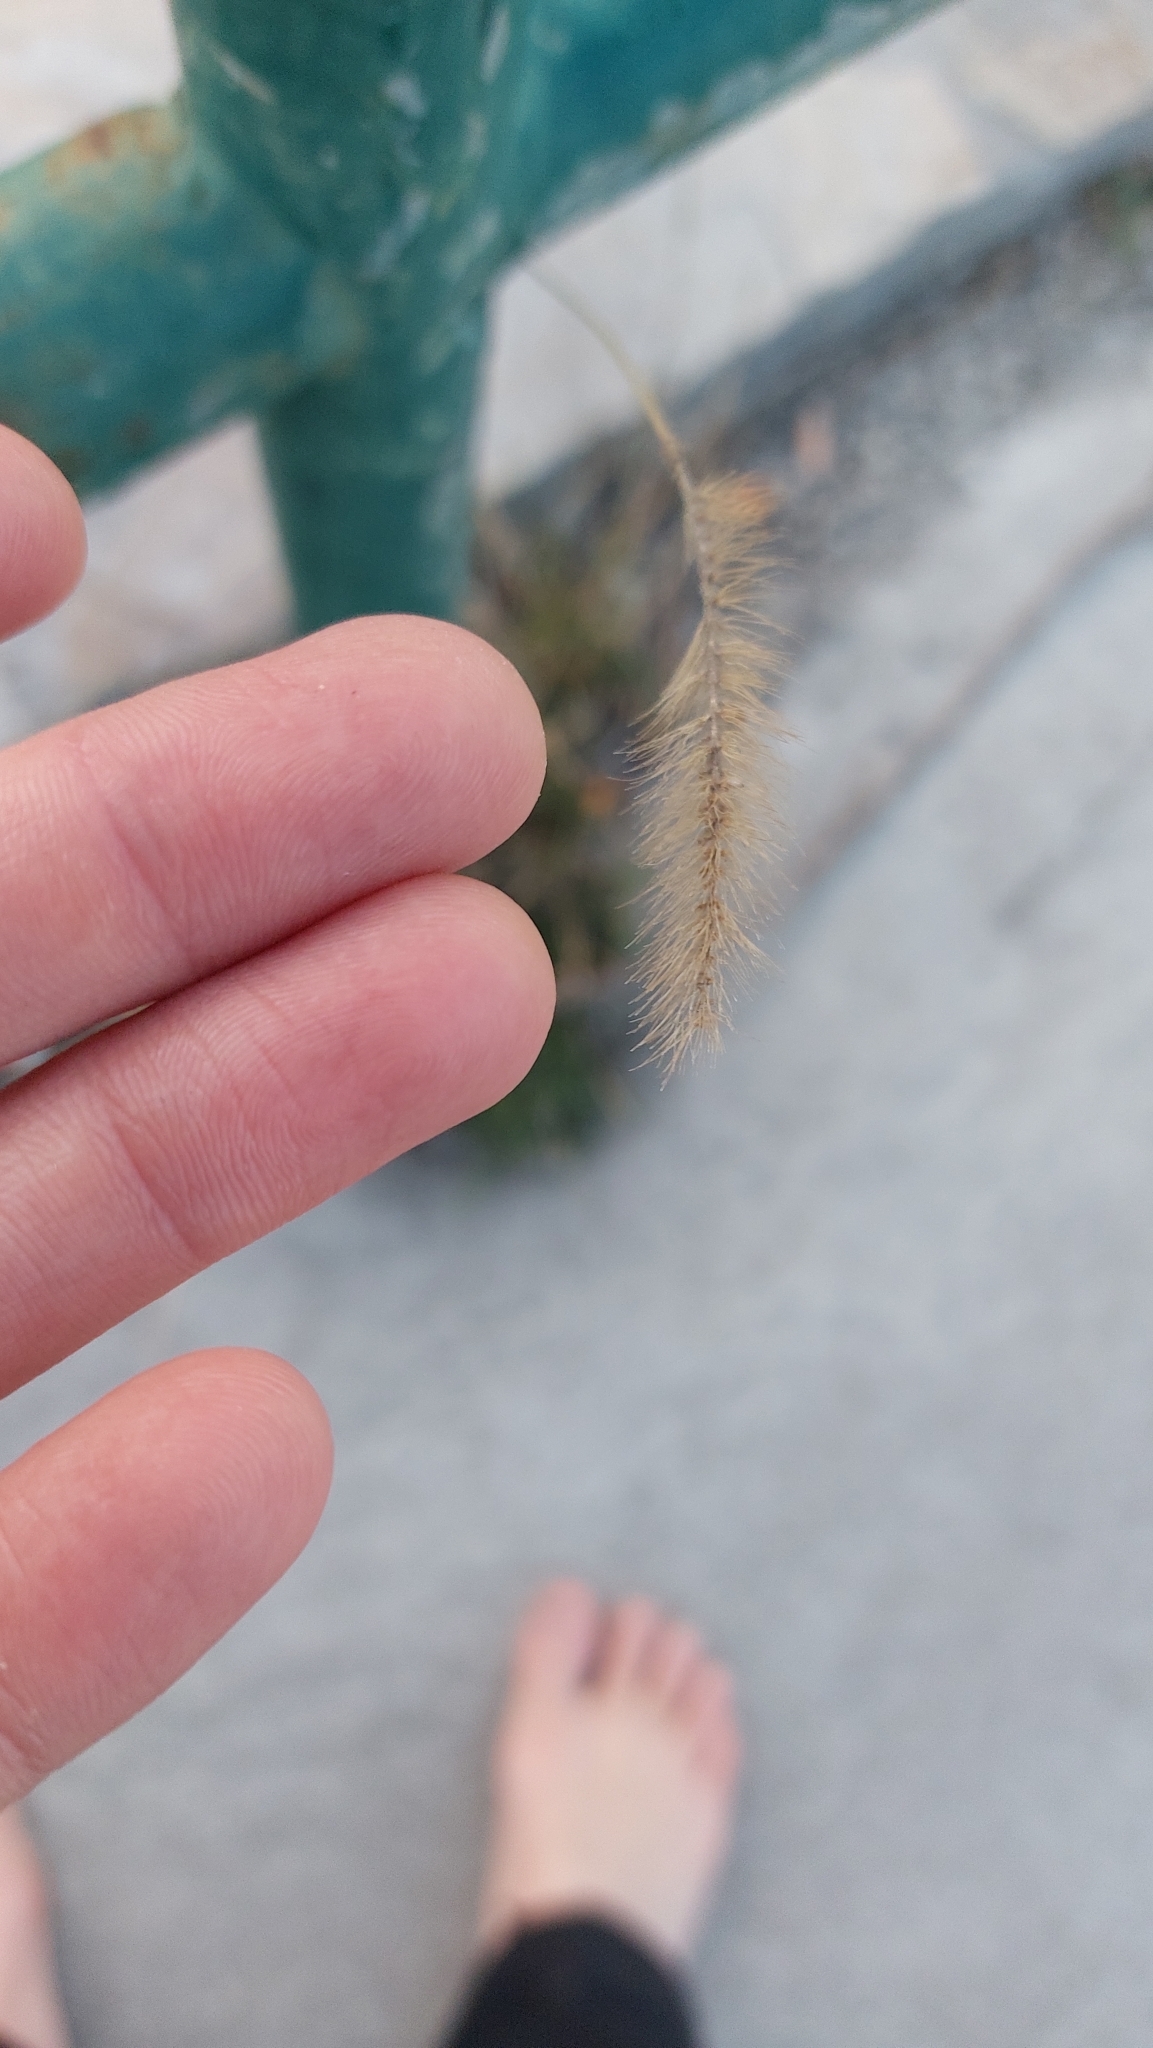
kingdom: Plantae
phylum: Tracheophyta
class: Liliopsida
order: Poales
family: Poaceae
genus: Setaria
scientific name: Setaria viridis
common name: Green bristlegrass
